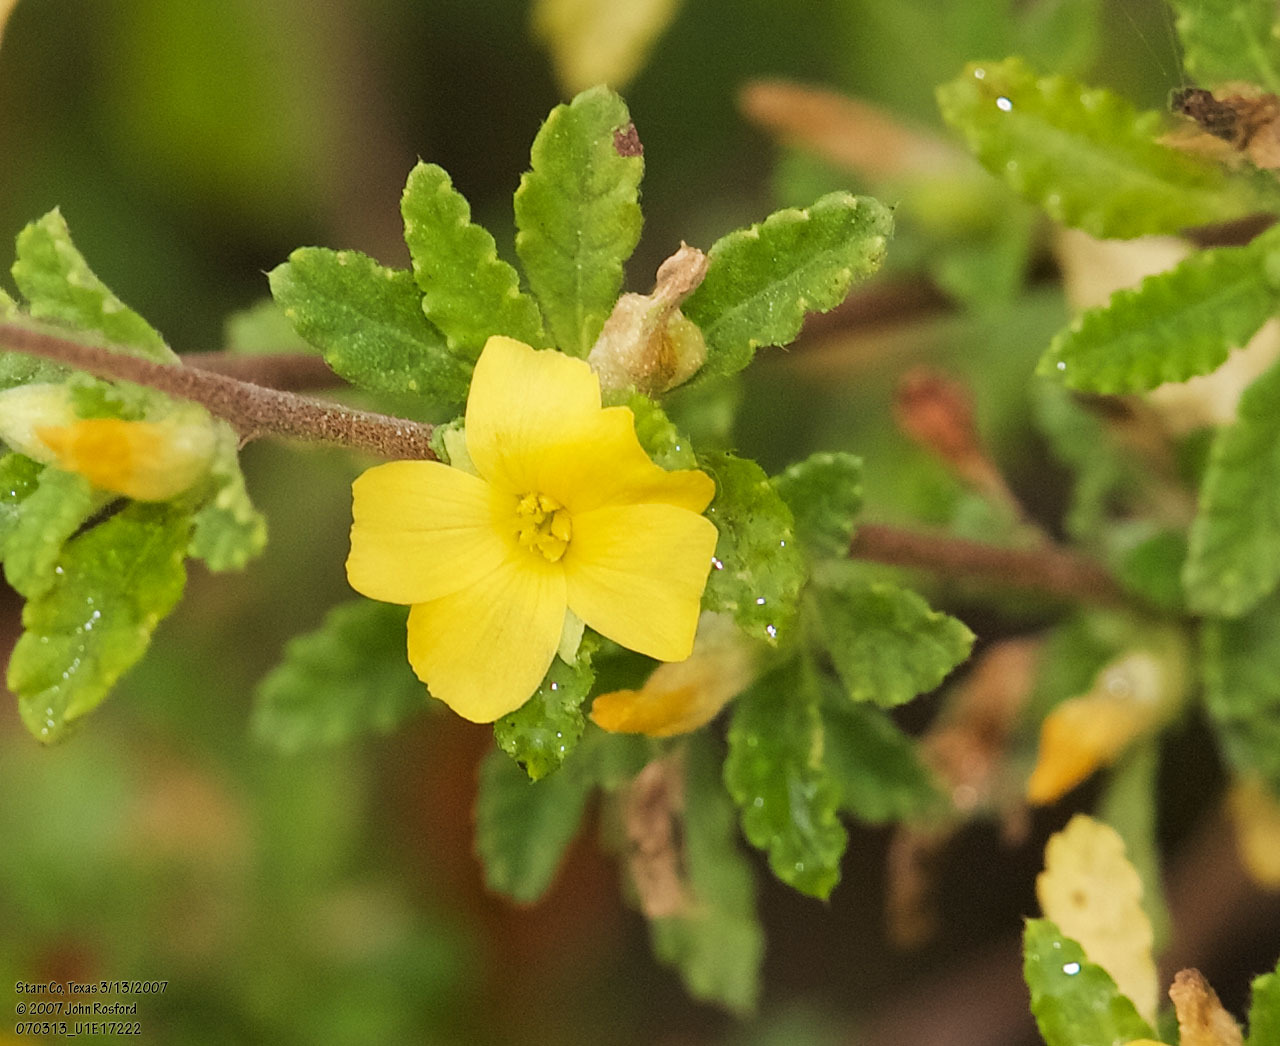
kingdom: Plantae
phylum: Tracheophyta
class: Magnoliopsida
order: Malpighiales
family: Turneraceae
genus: Turnera
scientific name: Turnera diffusa
